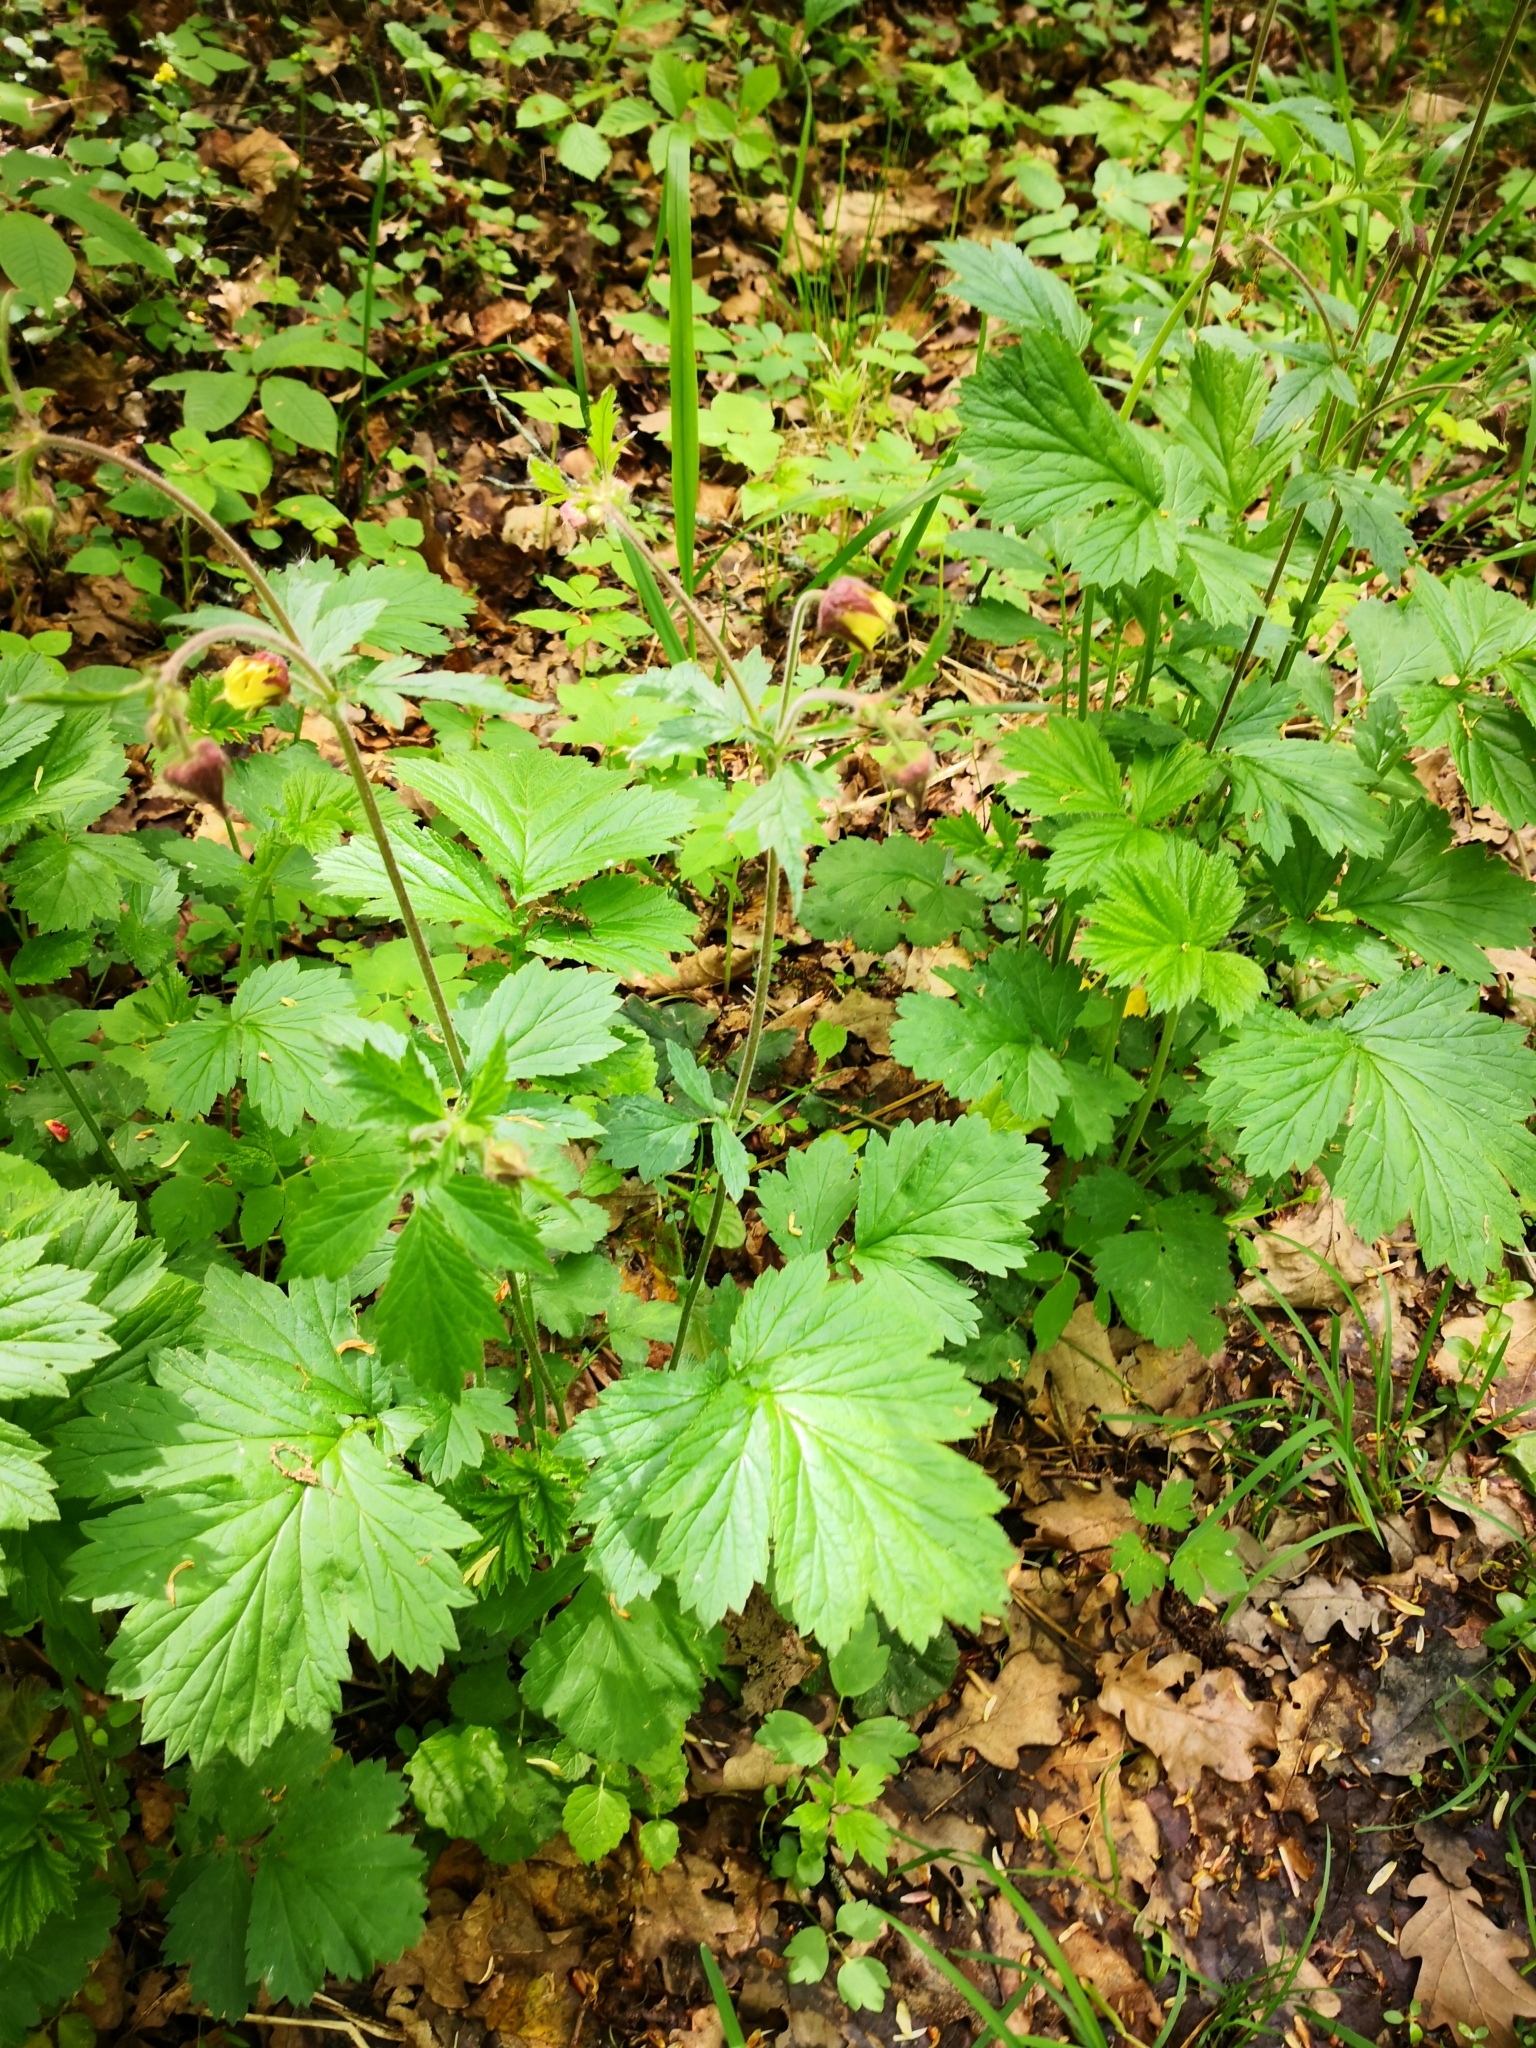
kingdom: Plantae
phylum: Tracheophyta
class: Magnoliopsida
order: Rosales
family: Rosaceae
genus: Geum
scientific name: Geum rivale
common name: Water avens
